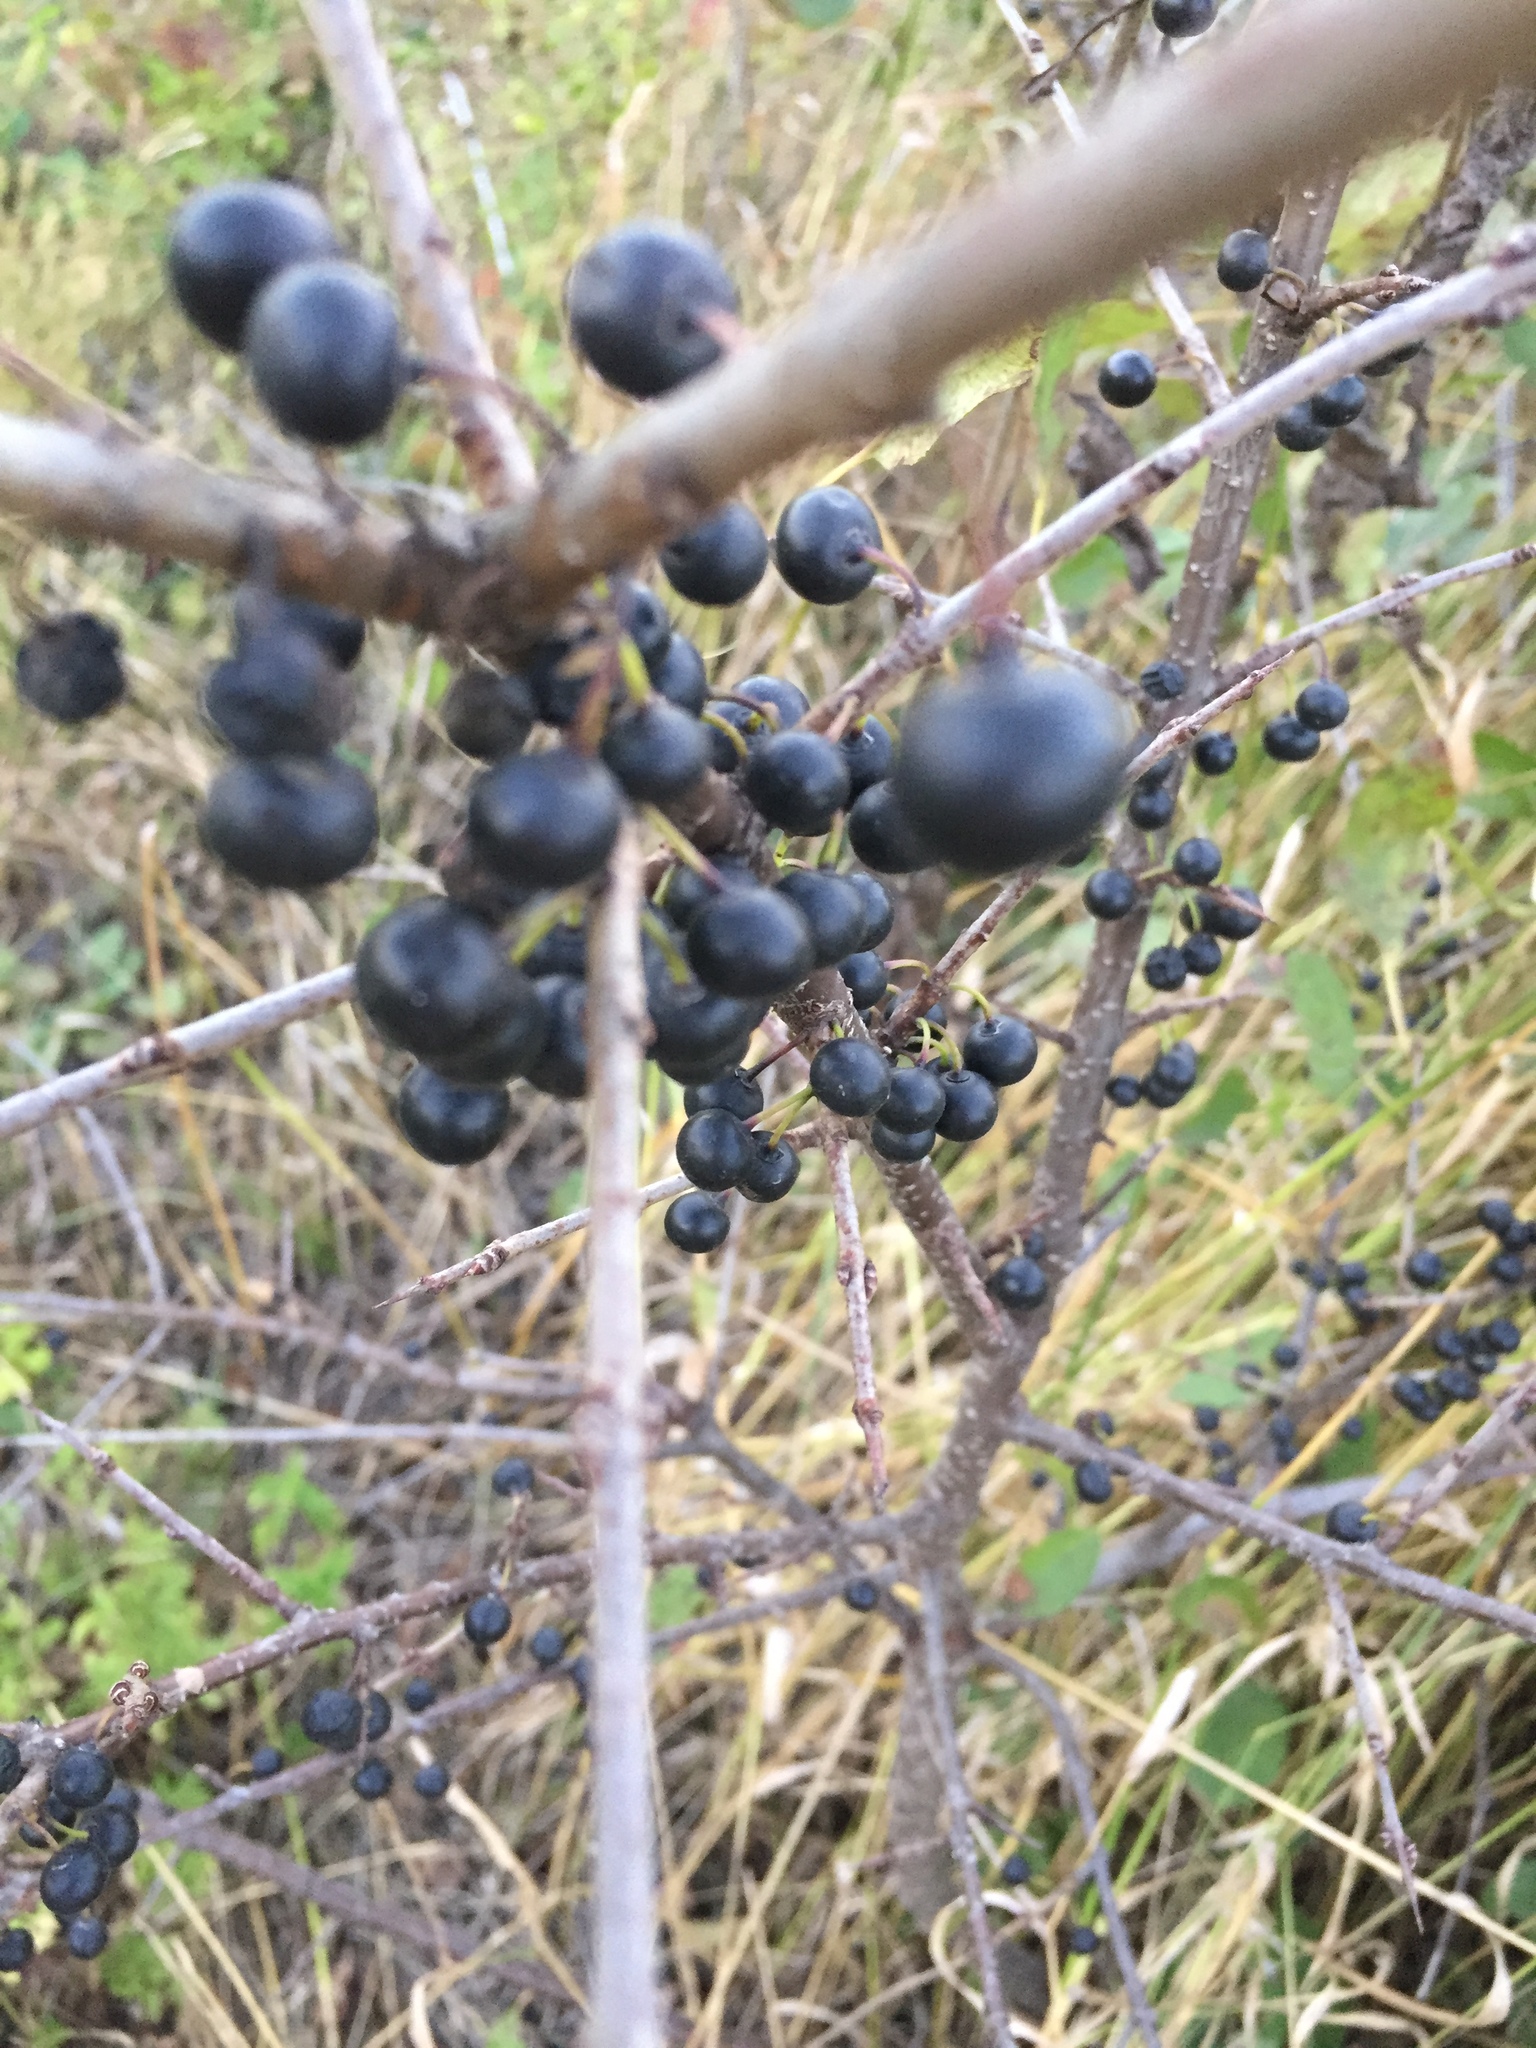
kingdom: Plantae
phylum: Tracheophyta
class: Magnoliopsida
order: Rosales
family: Rhamnaceae
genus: Rhamnus
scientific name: Rhamnus cathartica
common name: Common buckthorn
